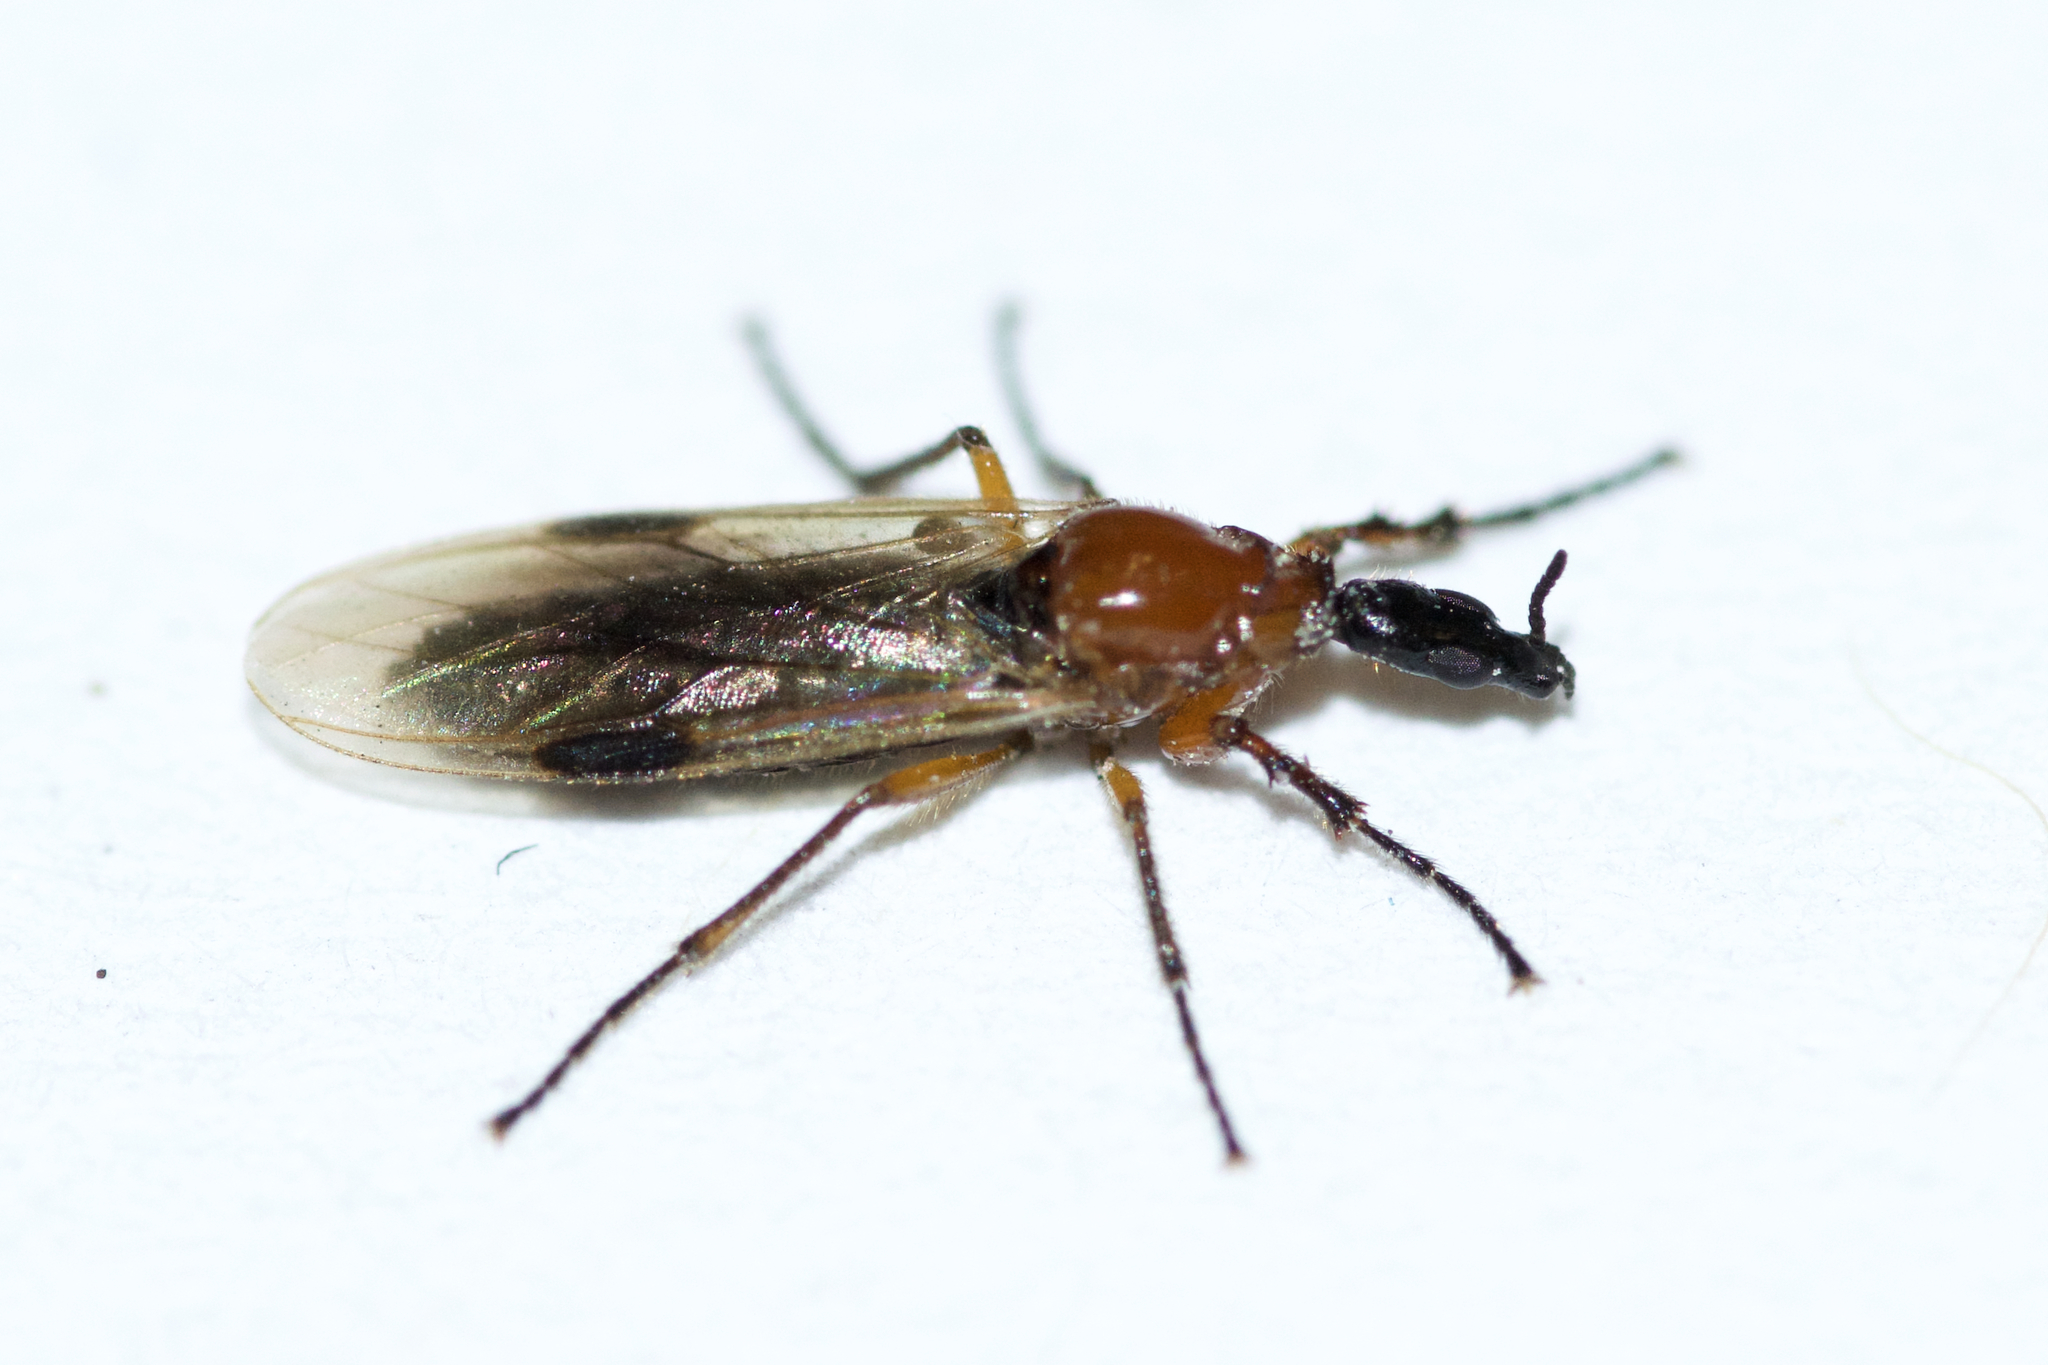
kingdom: Animalia
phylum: Arthropoda
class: Insecta
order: Diptera
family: Bibionidae
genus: Dilophus
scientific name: Dilophus stigmaterus
